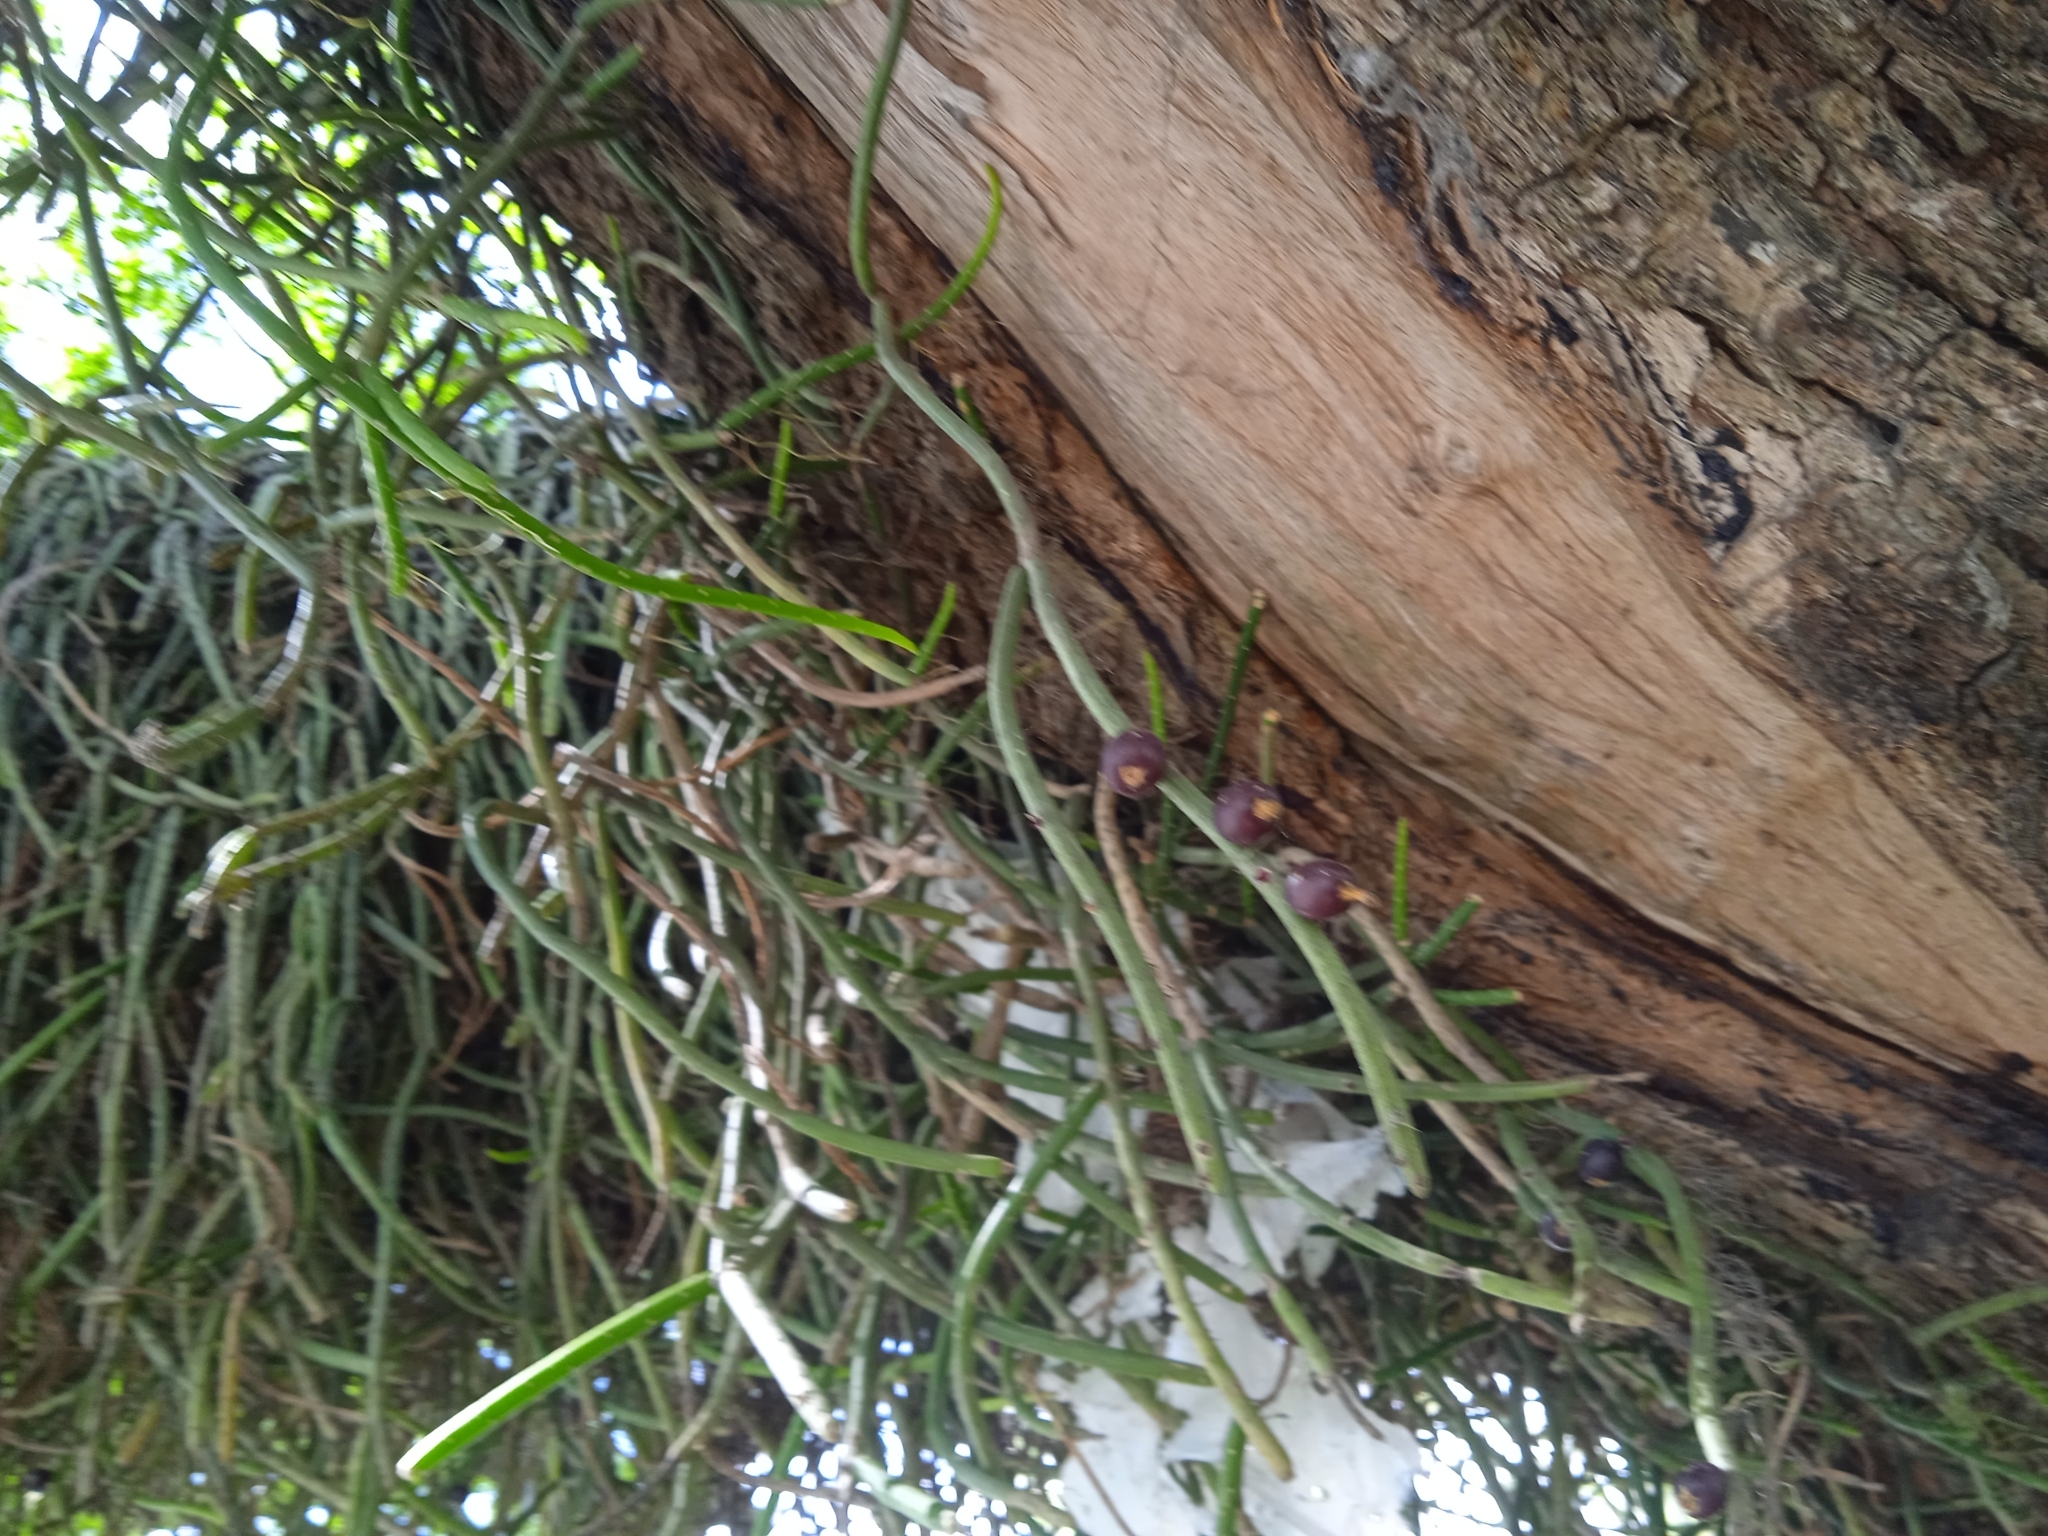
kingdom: Plantae
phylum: Tracheophyta
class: Magnoliopsida
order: Caryophyllales
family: Cactaceae
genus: Lepismium
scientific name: Lepismium lumbricoides
